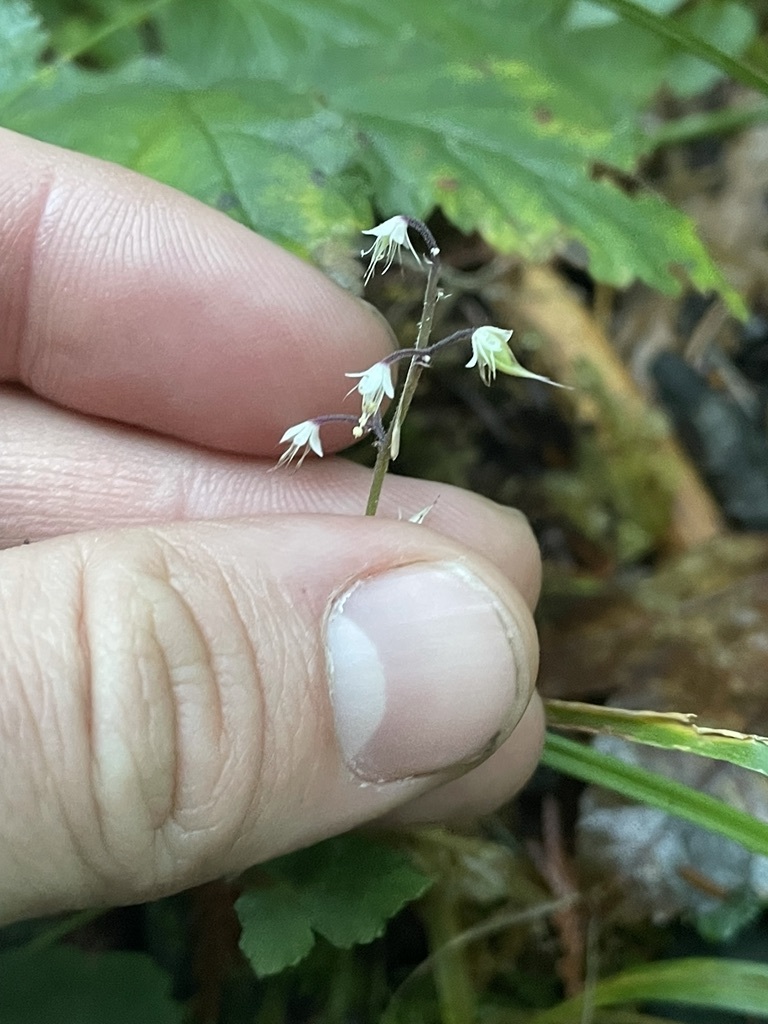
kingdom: Plantae
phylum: Tracheophyta
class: Magnoliopsida
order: Saxifragales
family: Saxifragaceae
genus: Tiarella
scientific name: Tiarella trifoliata
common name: Sugar-scoop
